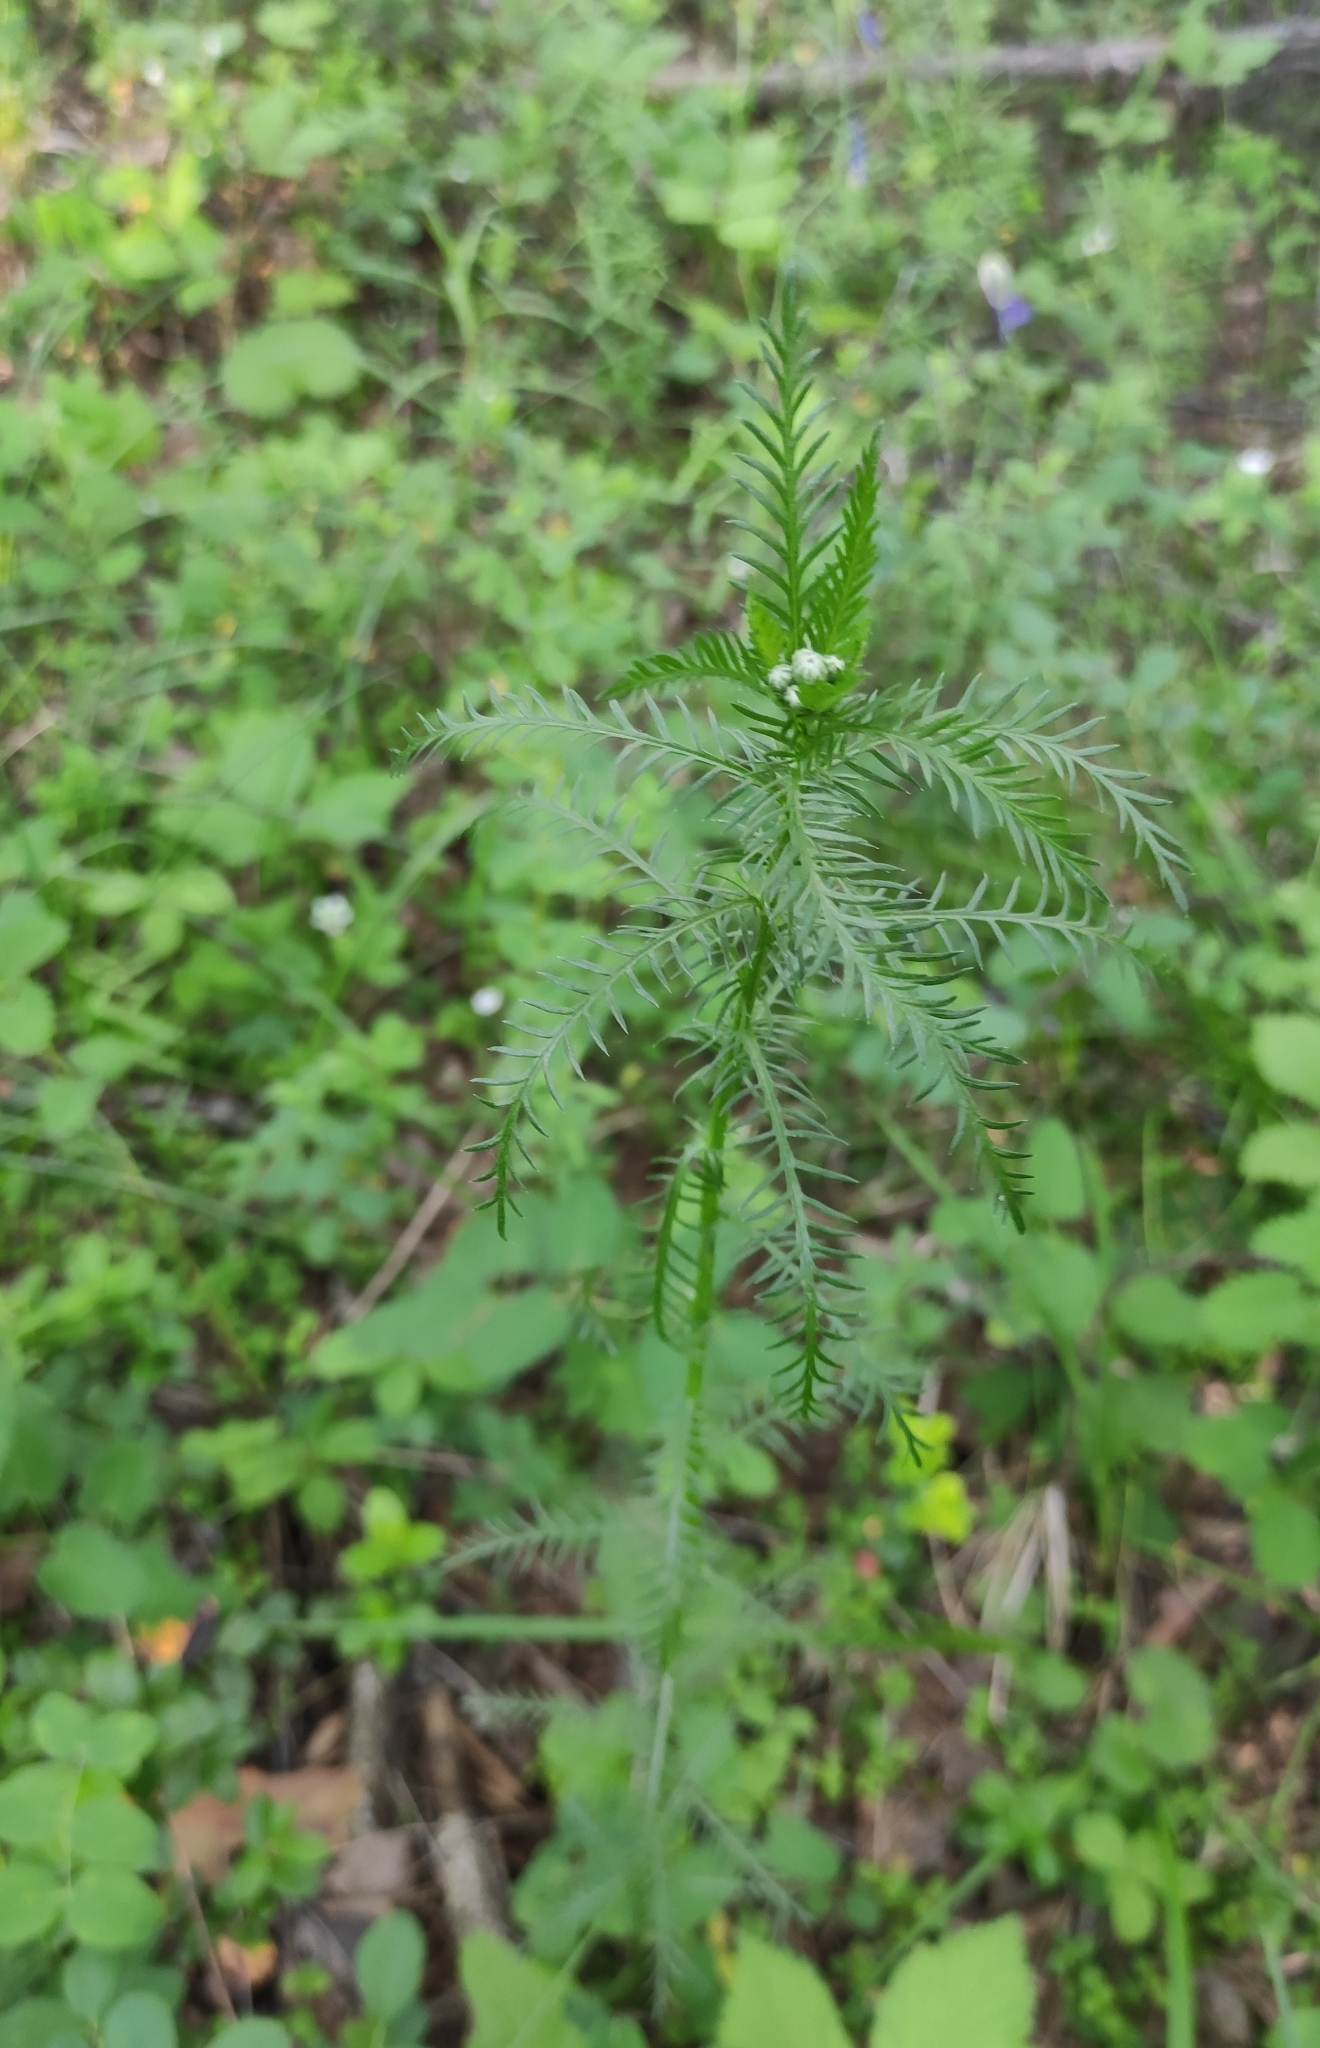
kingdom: Plantae
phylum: Tracheophyta
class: Magnoliopsida
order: Asterales
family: Asteraceae
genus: Achillea
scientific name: Achillea impatiens
